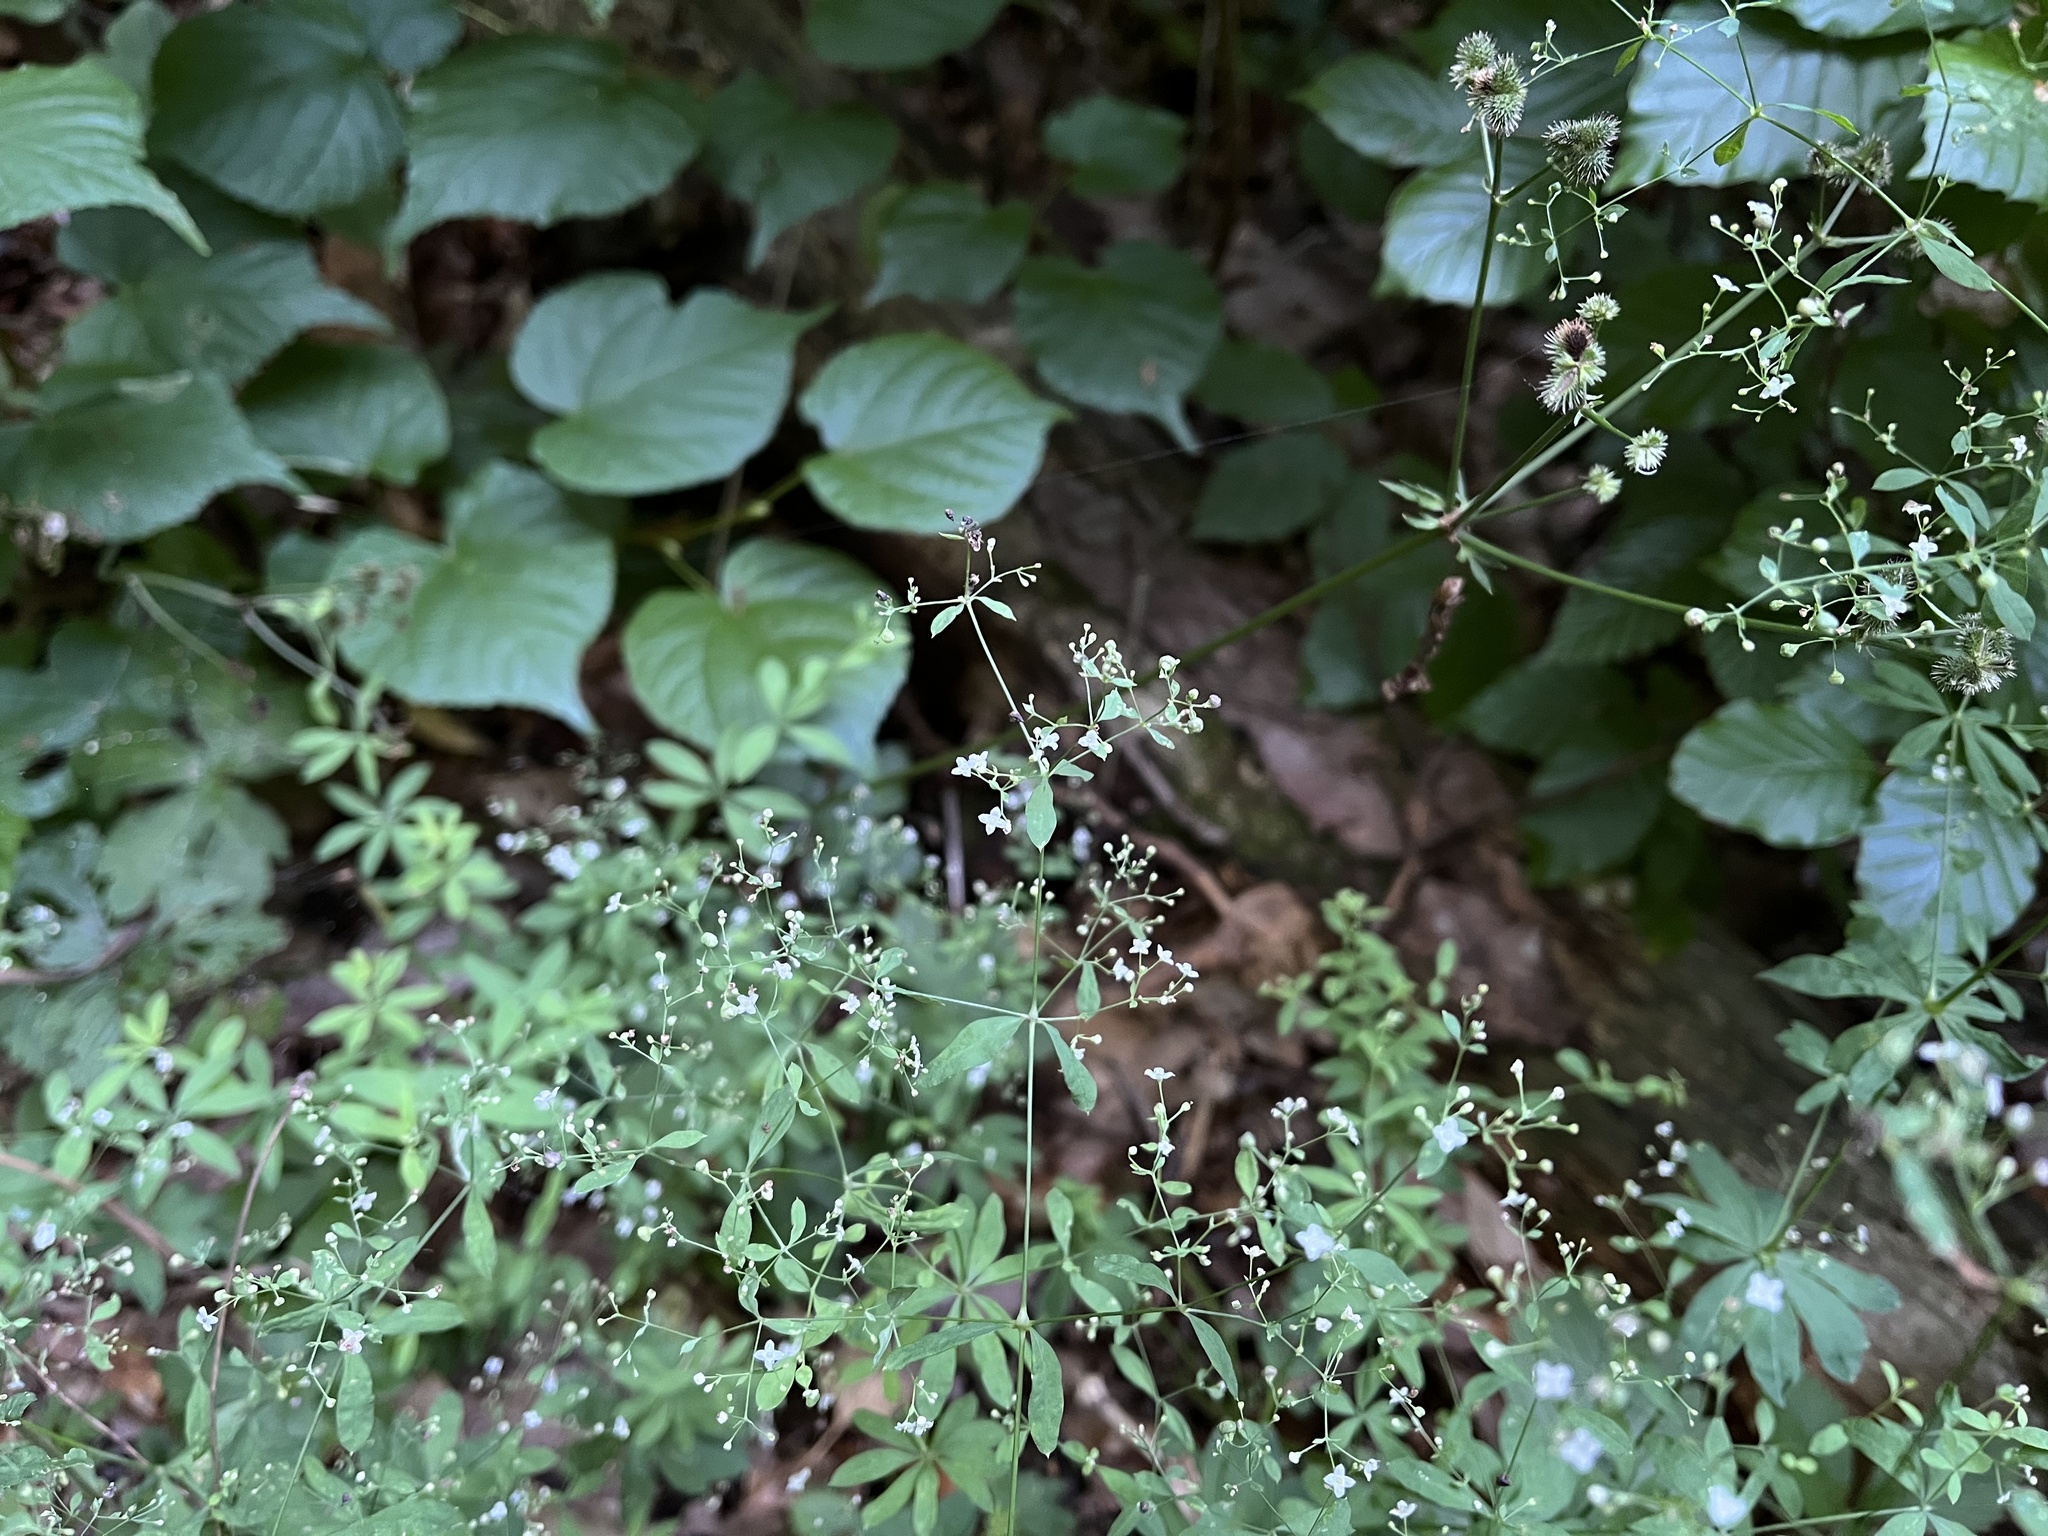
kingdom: Plantae
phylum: Tracheophyta
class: Magnoliopsida
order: Gentianales
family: Rubiaceae
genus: Galium
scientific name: Galium sylvaticum
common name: Wood bedstraw
